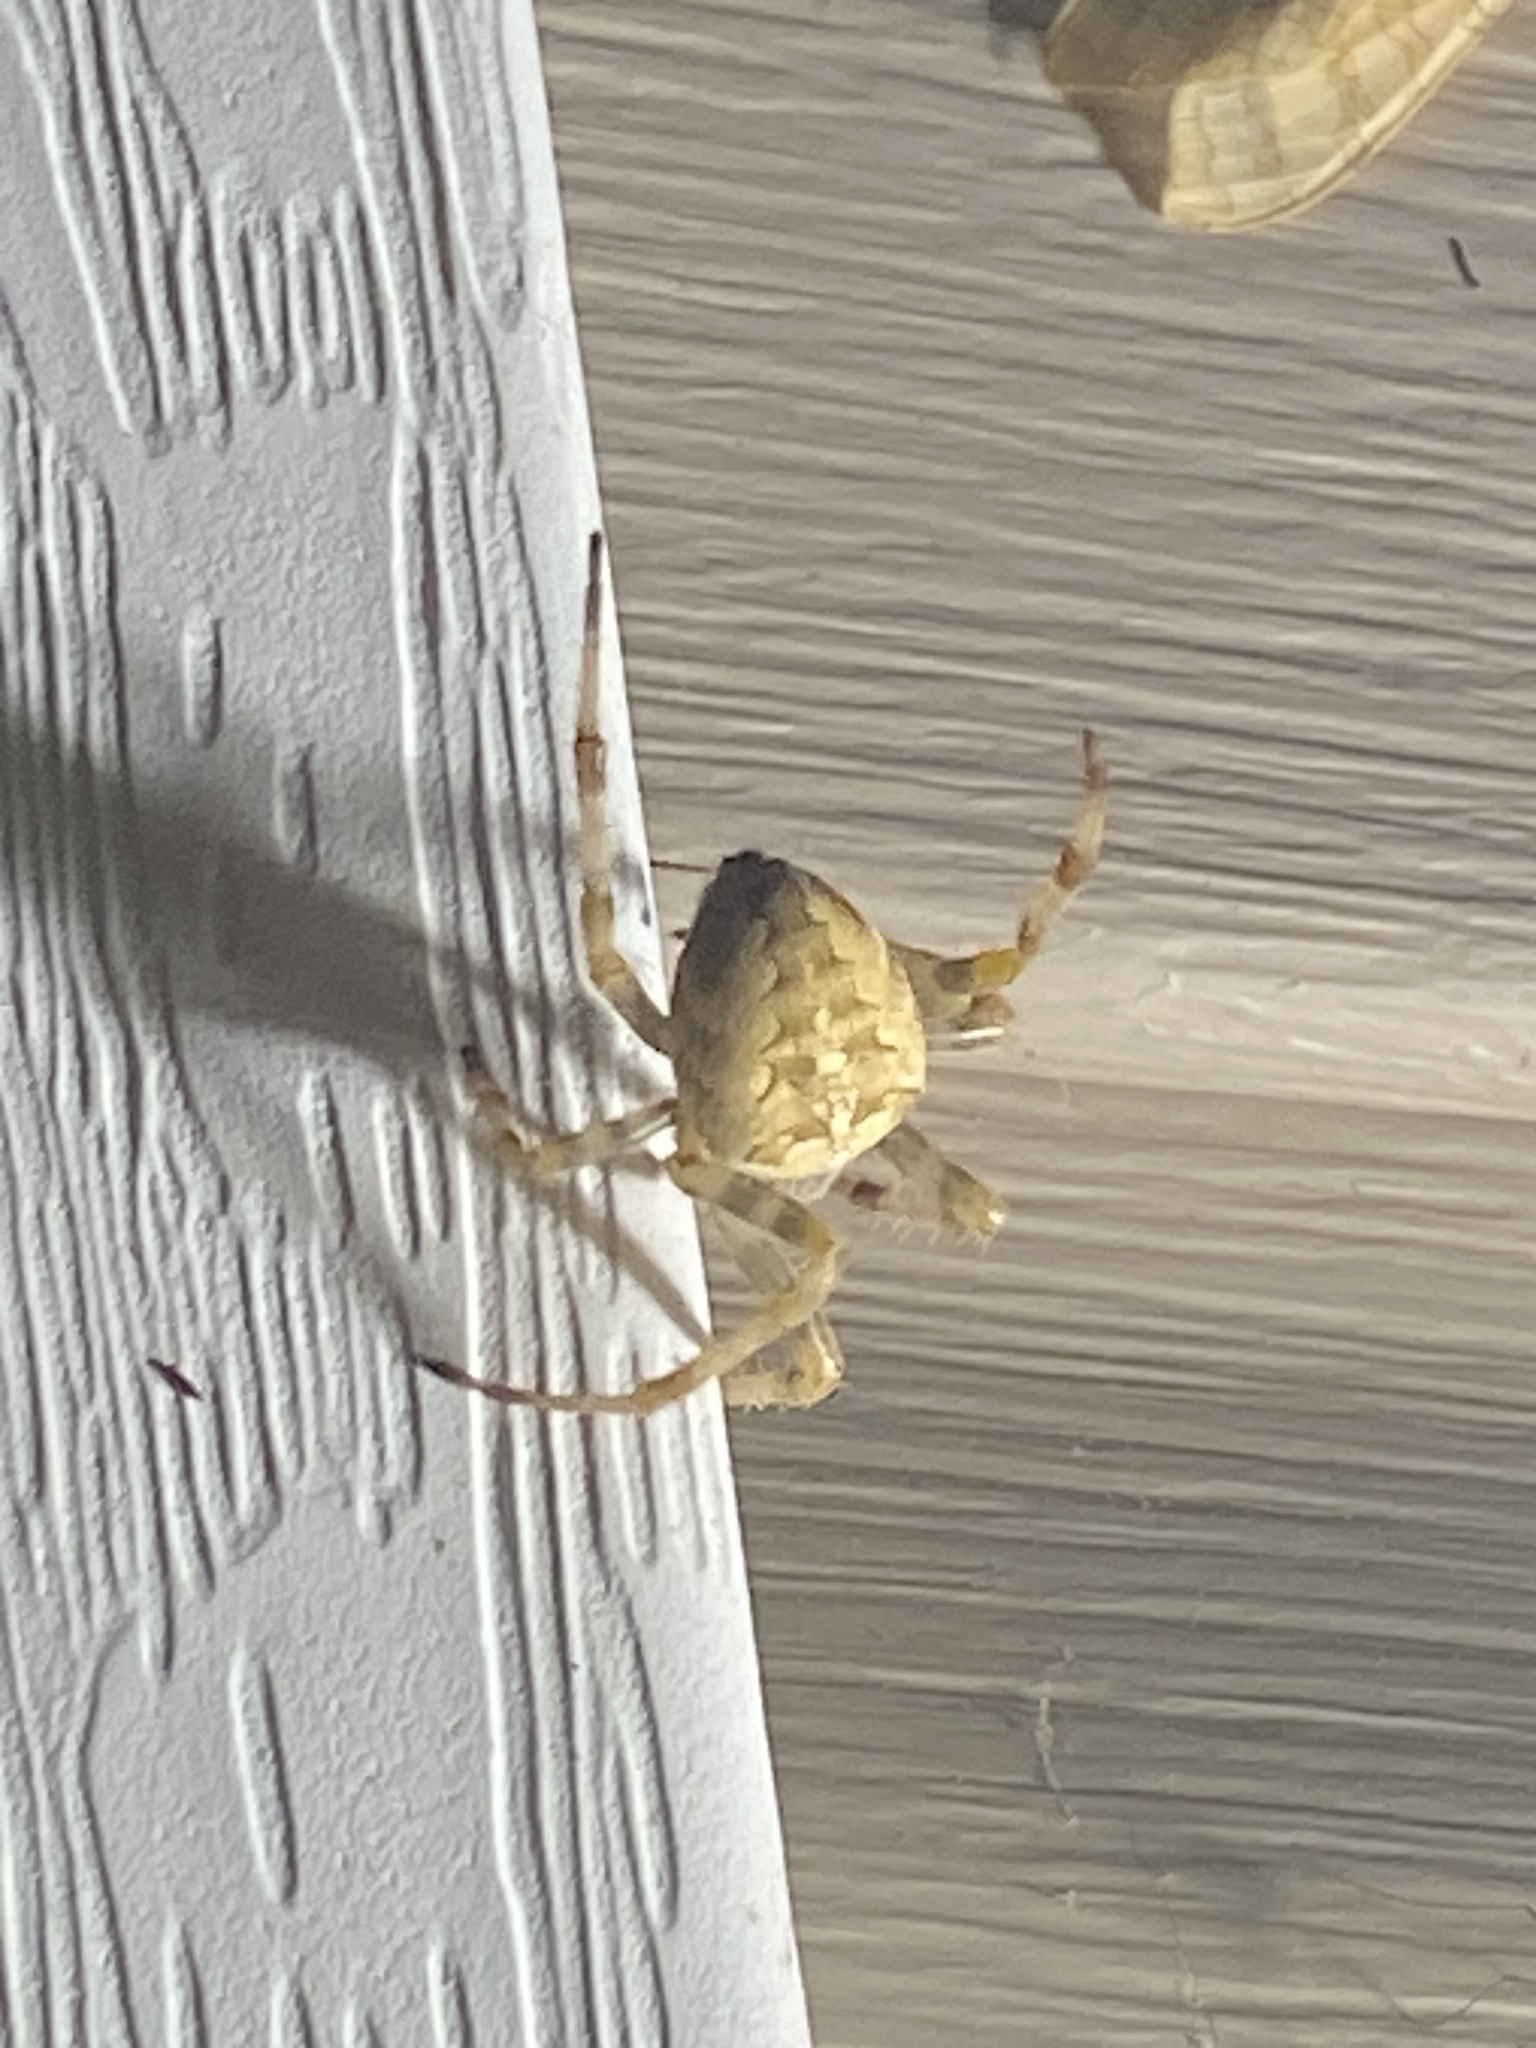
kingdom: Animalia
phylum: Arthropoda
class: Arachnida
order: Araneae
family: Araneidae
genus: Araneus
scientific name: Araneus diadematus
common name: Cross orbweaver
